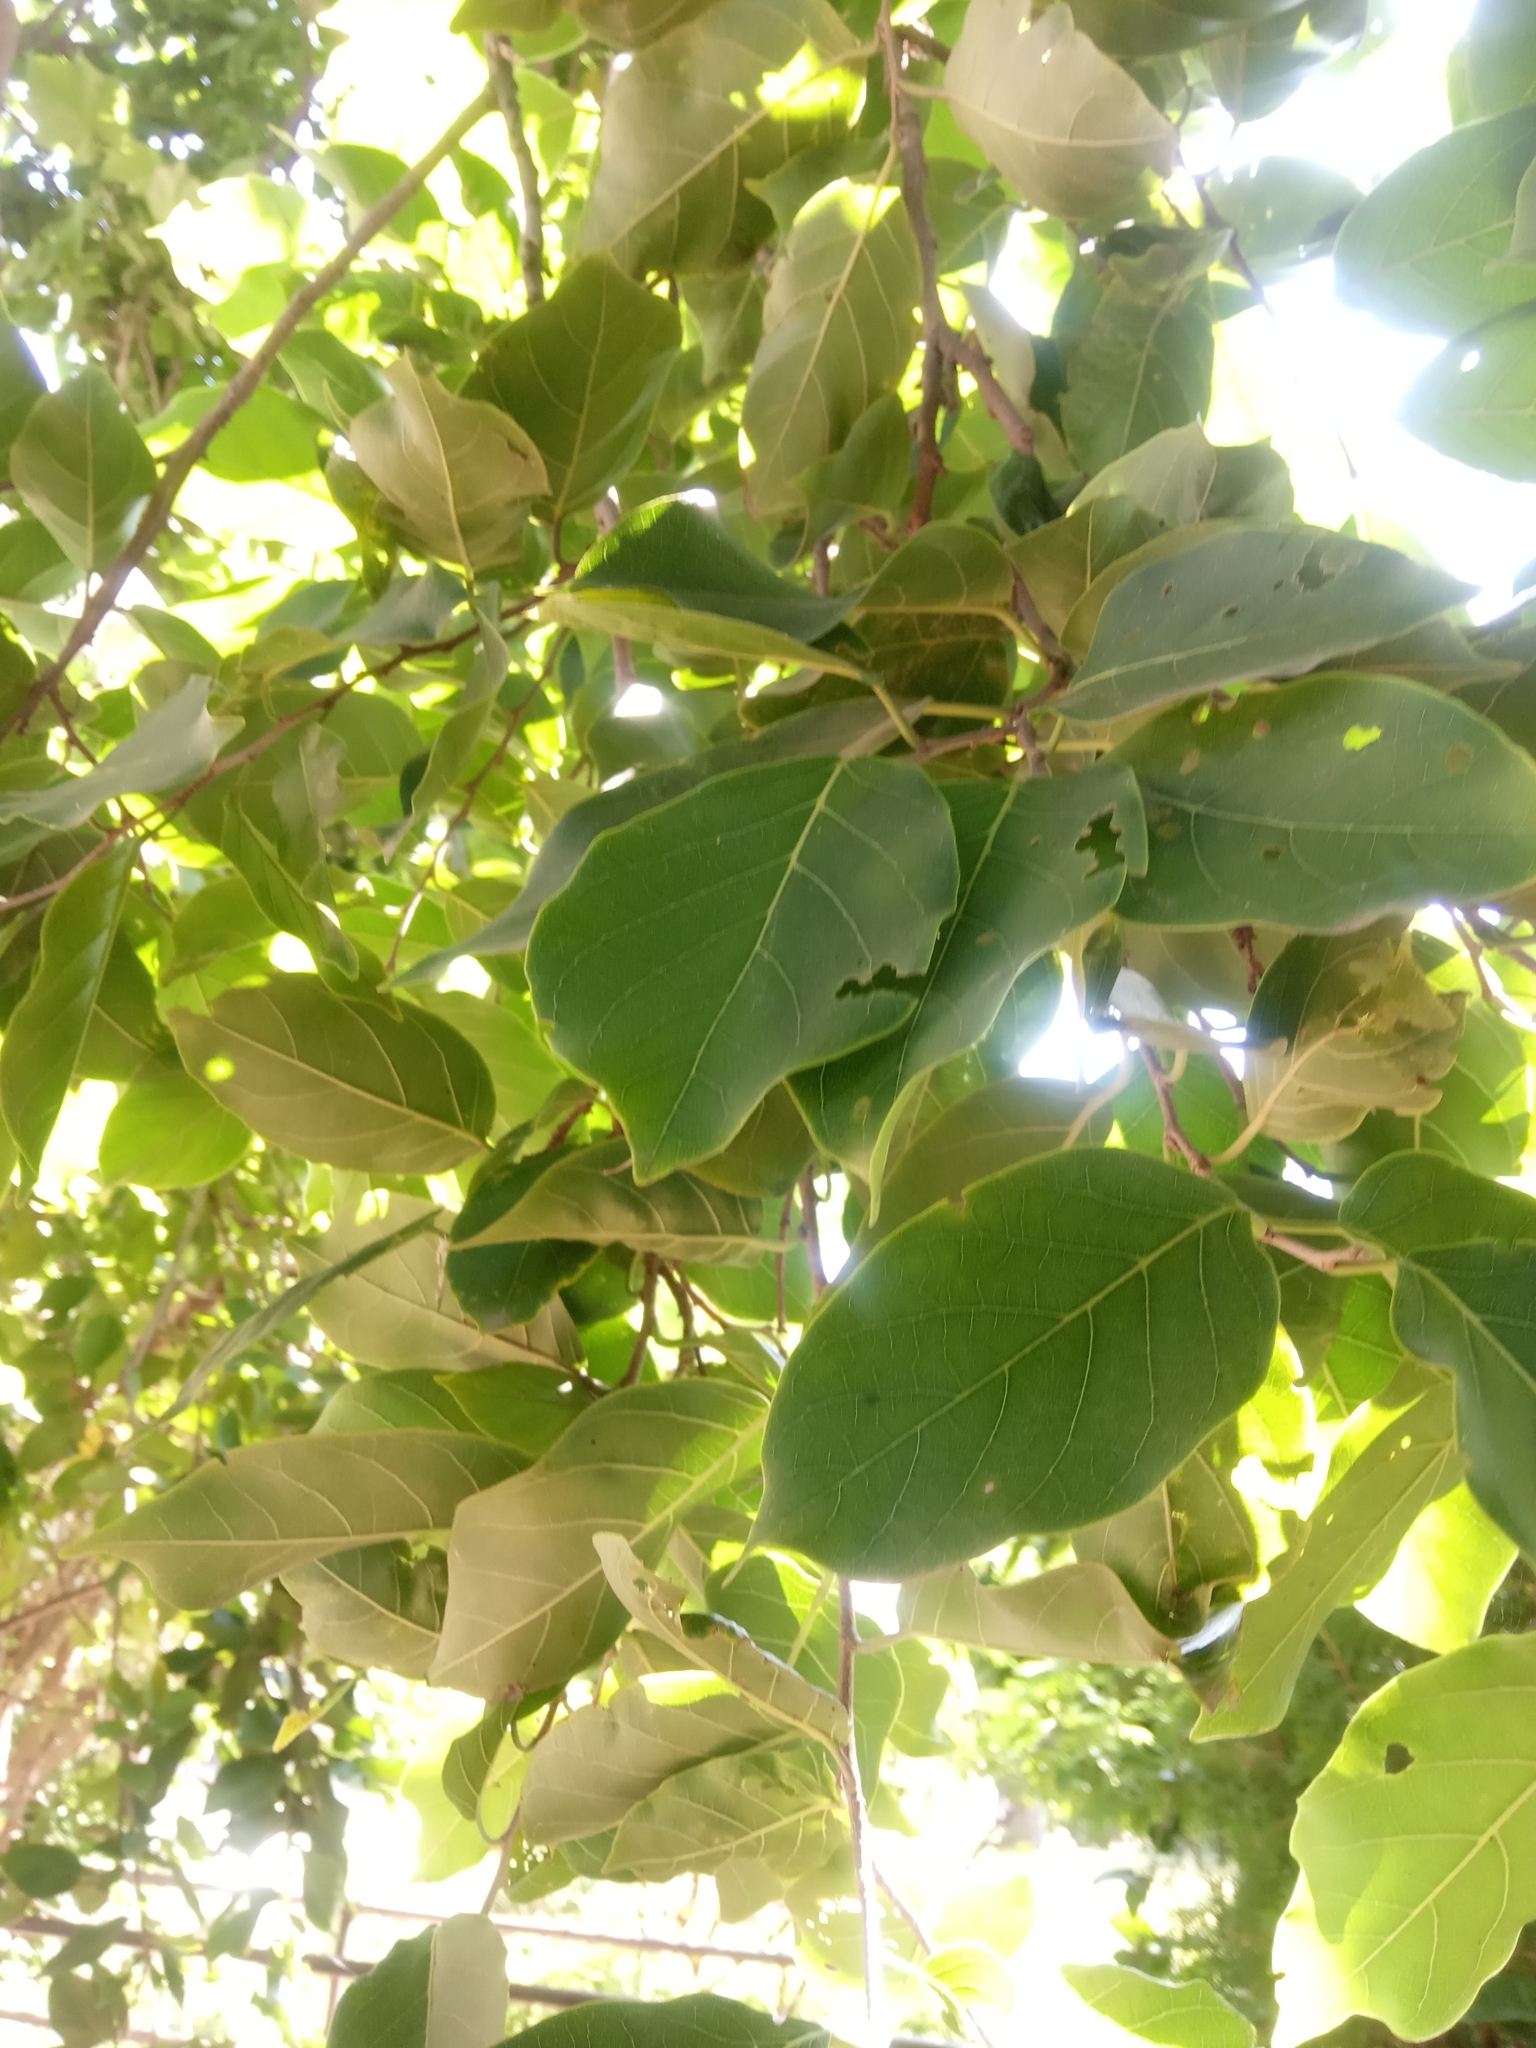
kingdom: Plantae
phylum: Tracheophyta
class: Magnoliopsida
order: Rosales
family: Ulmaceae
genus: Holoptelea
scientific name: Holoptelea integrifolia
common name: Indian-elm
